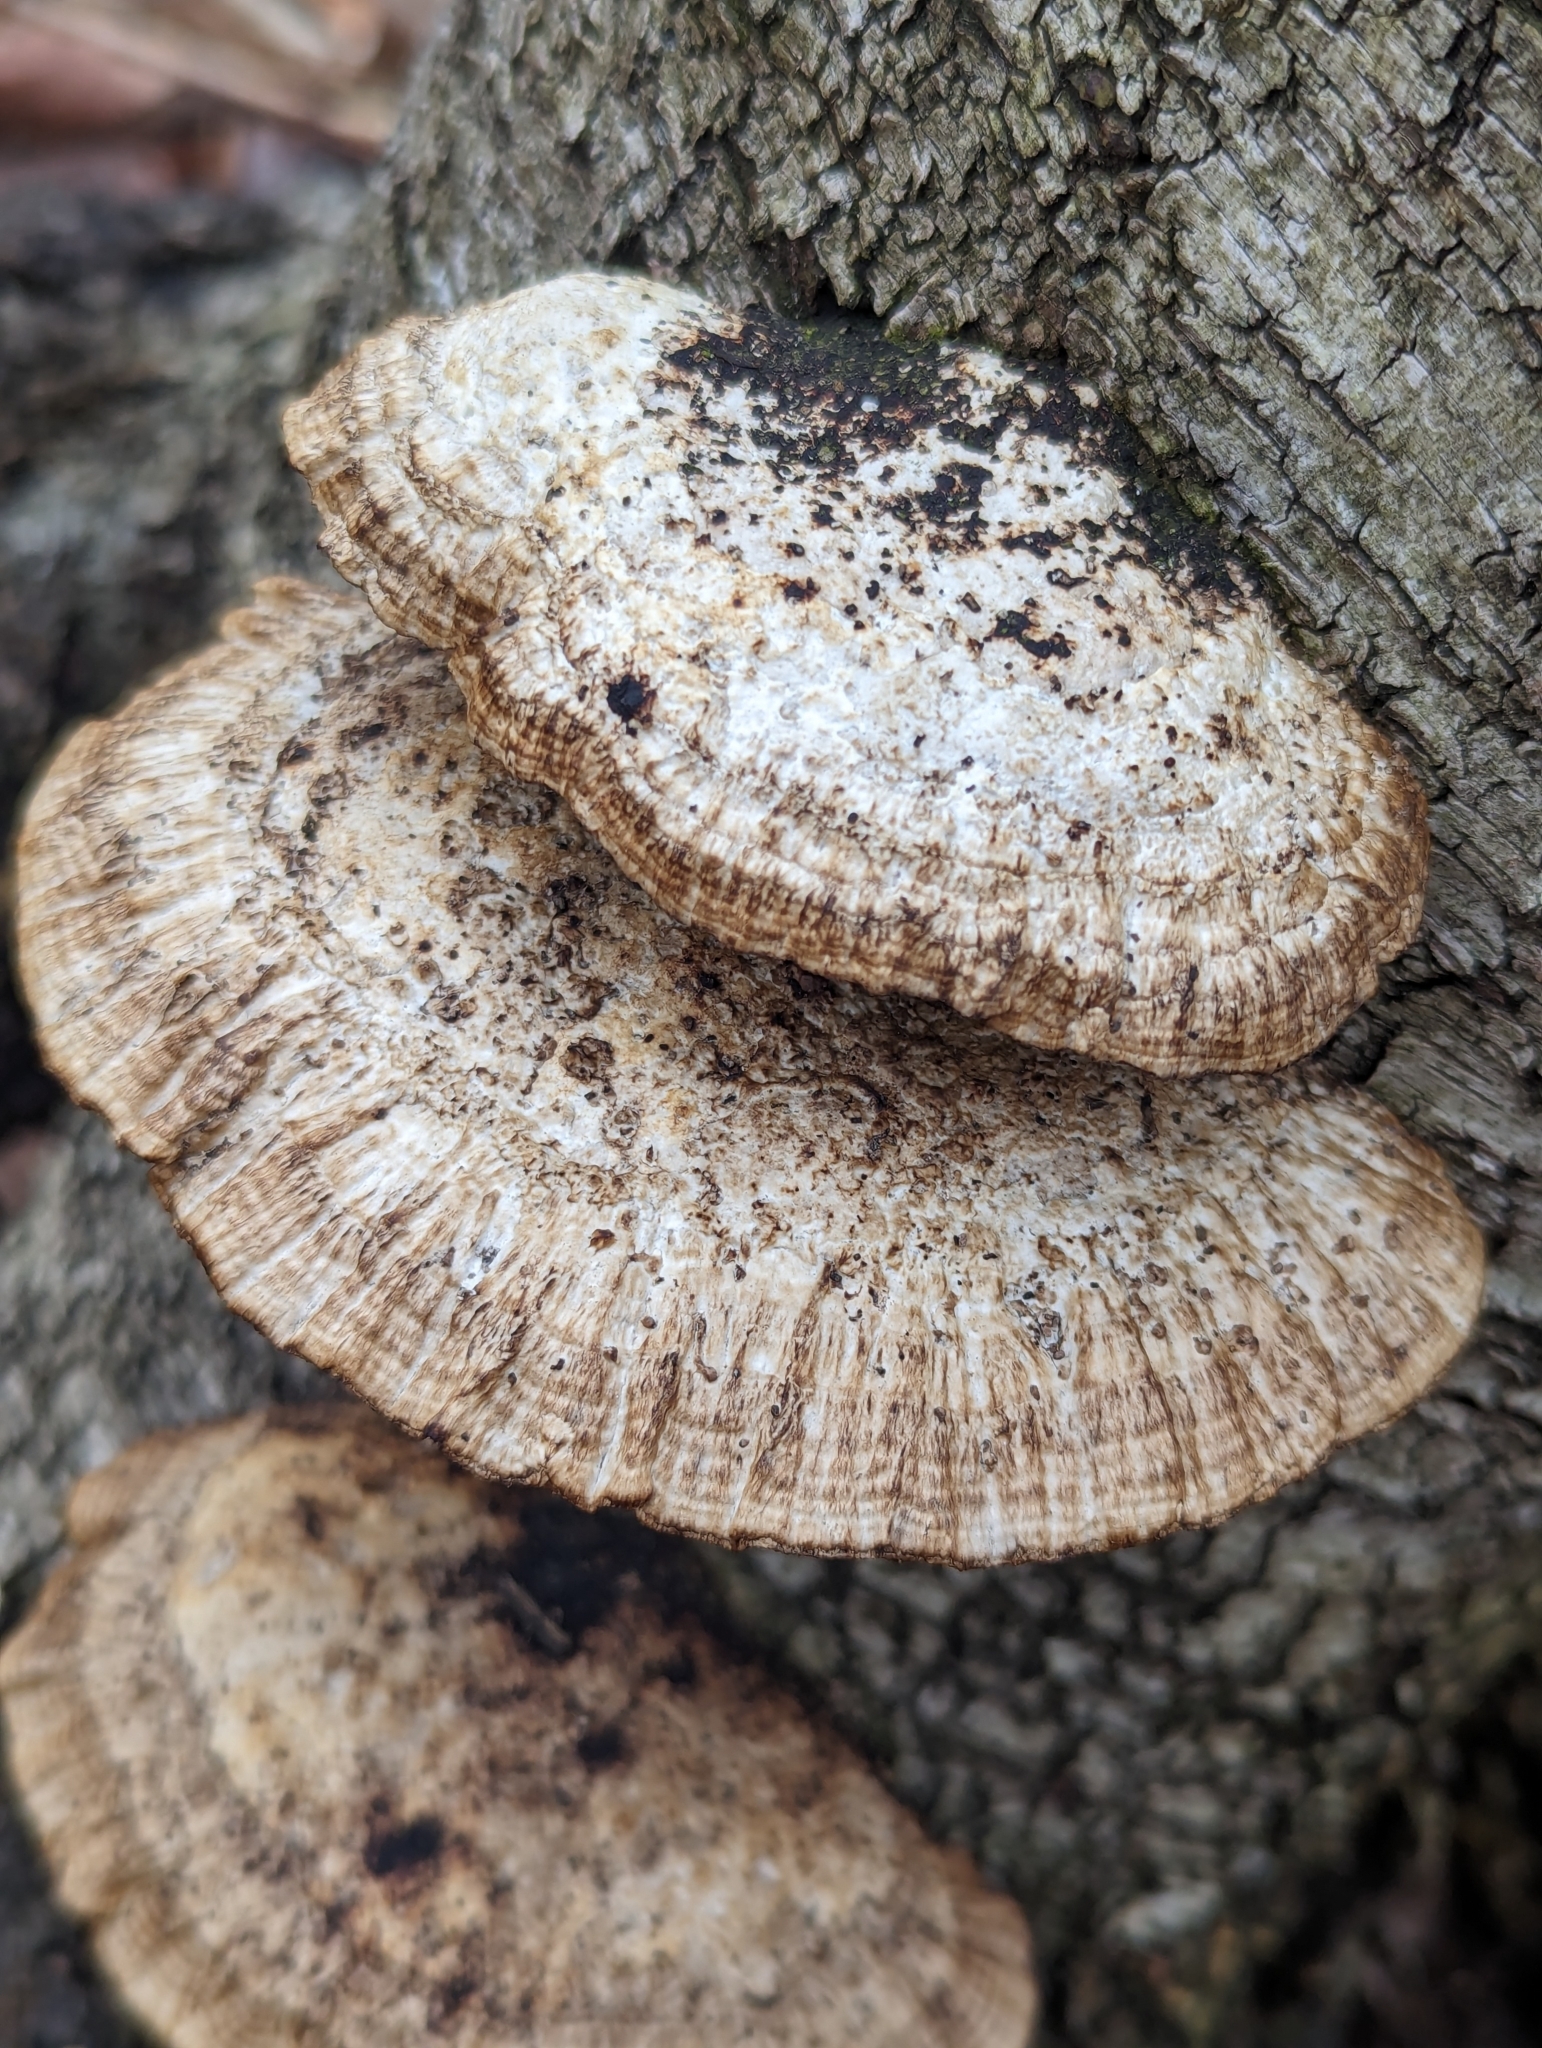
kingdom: Fungi
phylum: Basidiomycota
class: Agaricomycetes
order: Polyporales
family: Polyporaceae
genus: Daedaleopsis
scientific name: Daedaleopsis confragosa
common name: Blushing bracket
